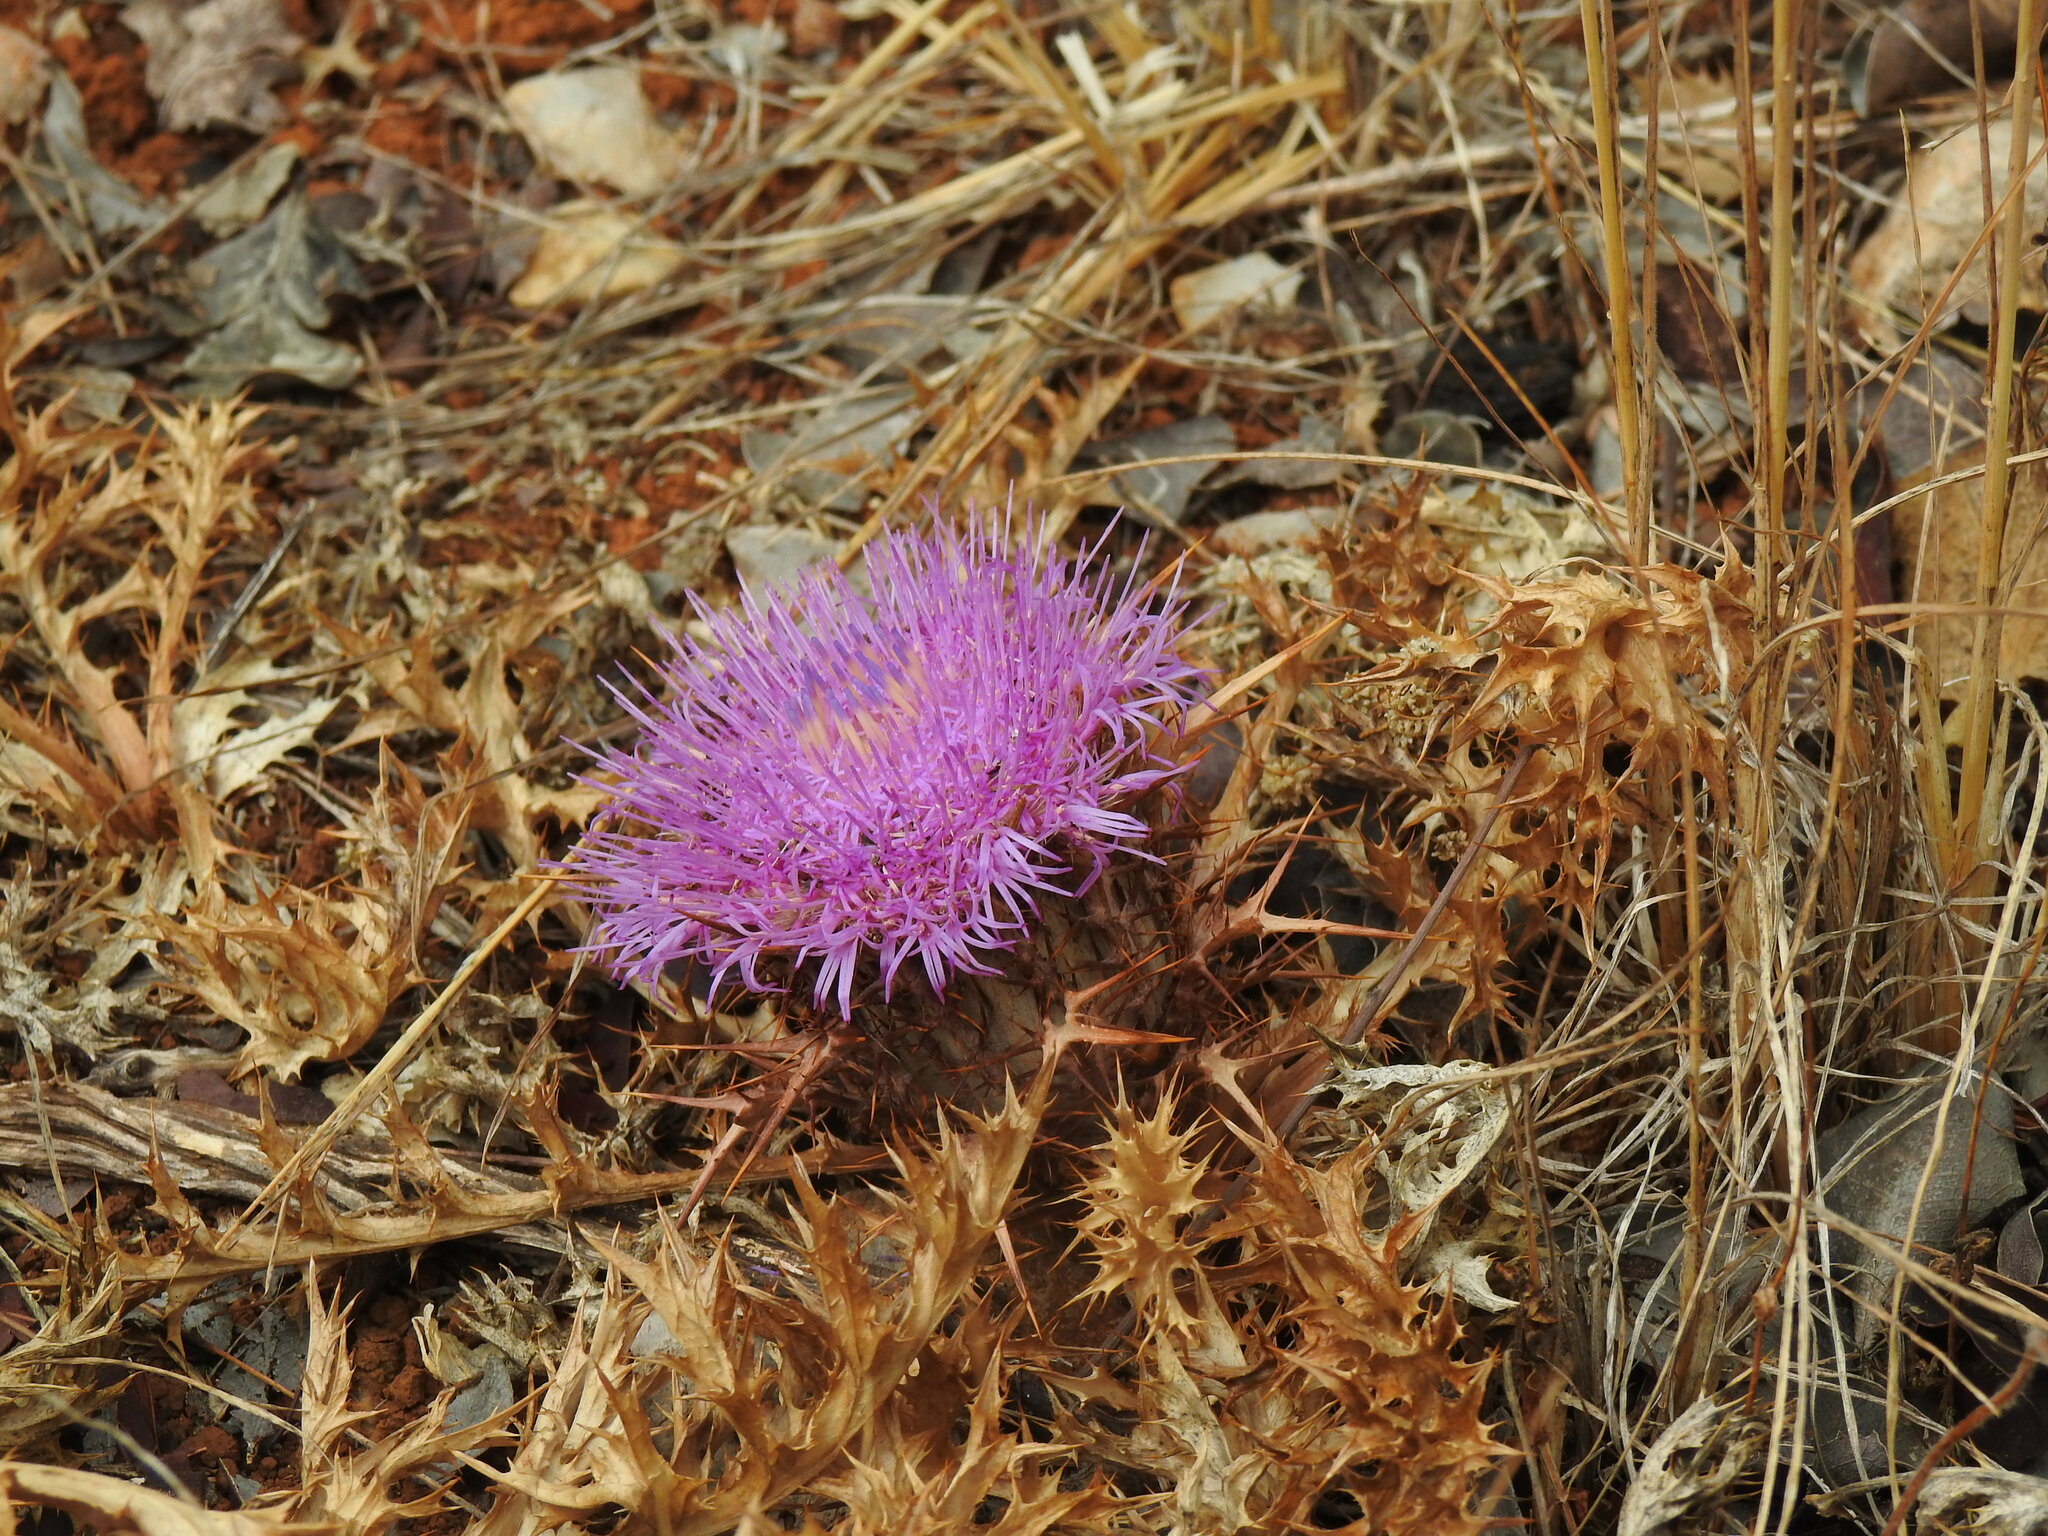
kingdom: Plantae
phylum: Tracheophyta
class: Magnoliopsida
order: Asterales
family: Asteraceae
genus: Chamaeleon
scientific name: Chamaeleon gummifer
